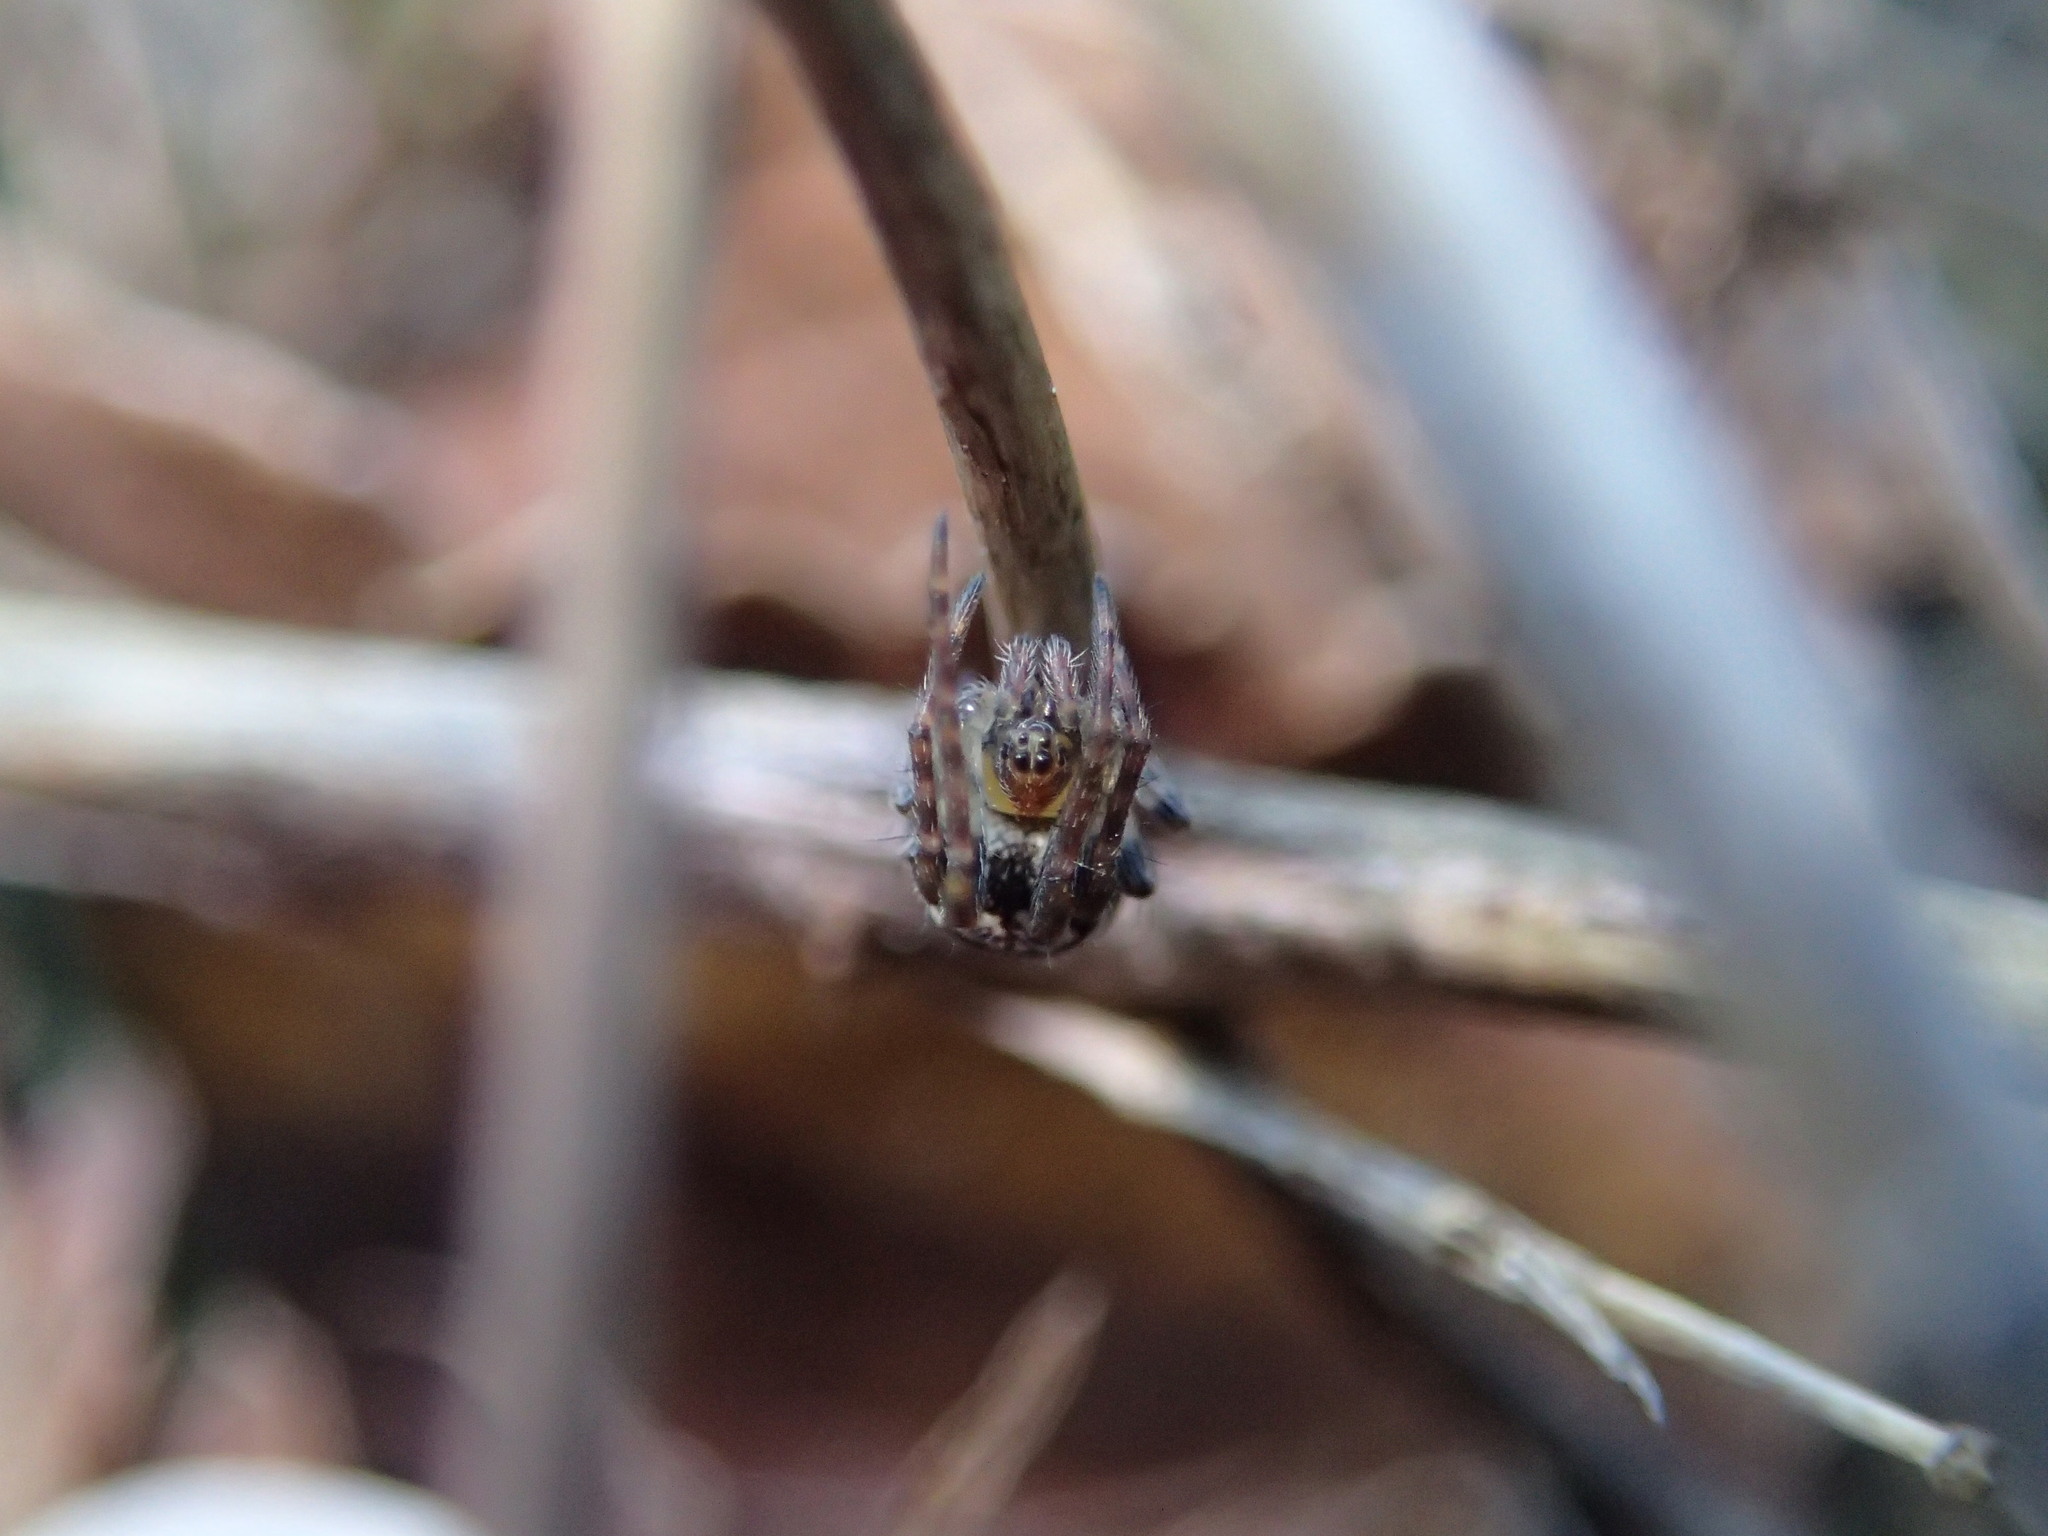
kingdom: Animalia
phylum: Arthropoda
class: Arachnida
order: Araneae
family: Araneidae
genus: Zilla
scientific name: Zilla diodia
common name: Zilla diodia
